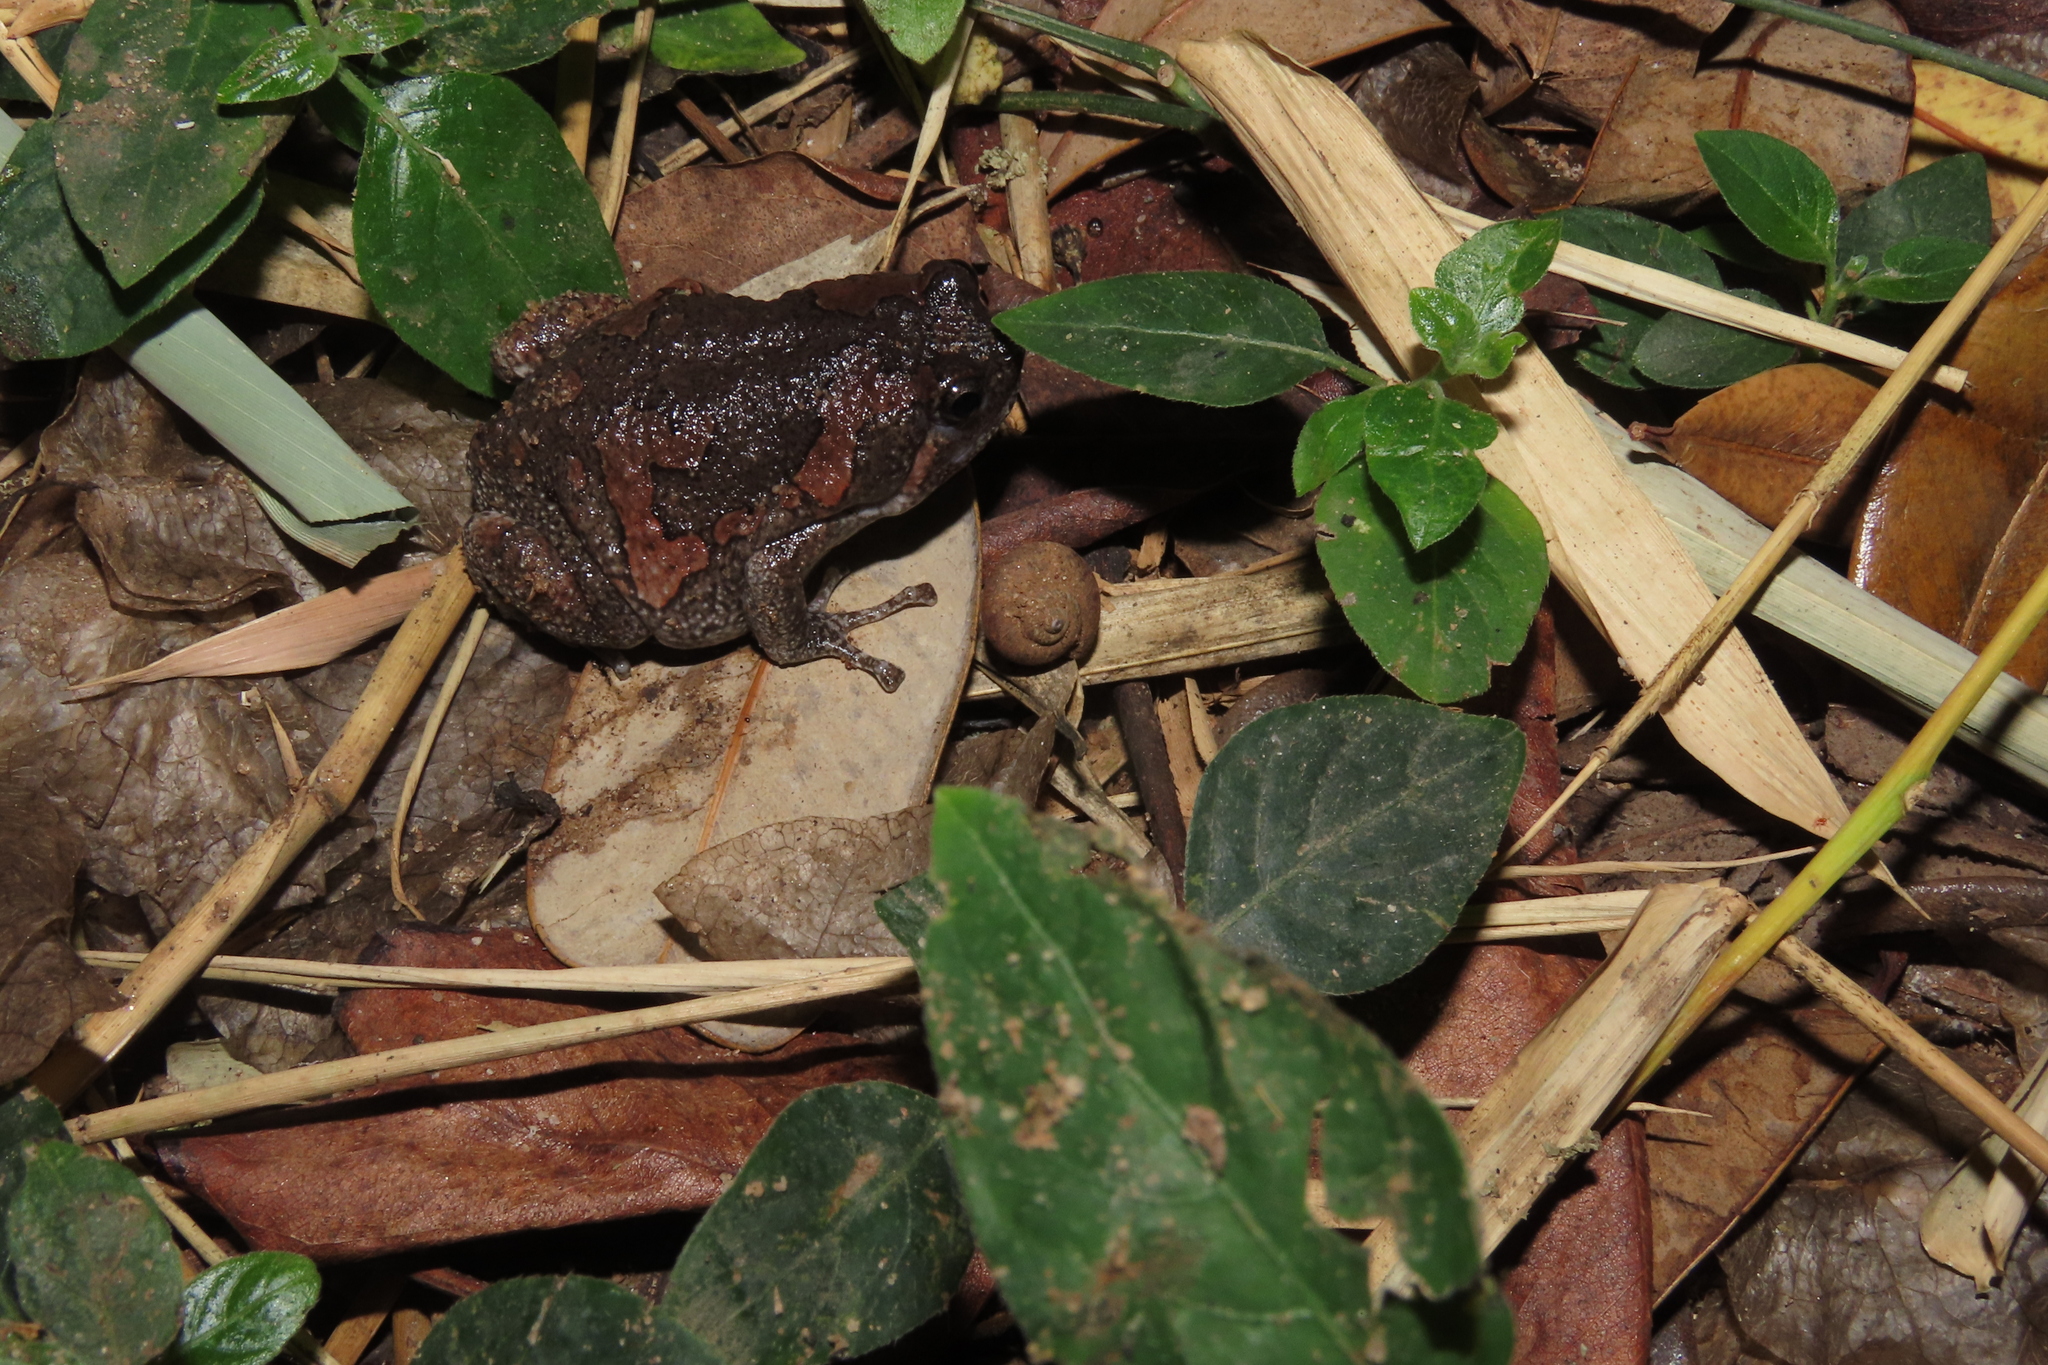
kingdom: Animalia
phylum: Chordata
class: Amphibia
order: Anura
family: Microhylidae
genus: Uperodon
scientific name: Uperodon taprobanicus
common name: Ceylon kaloula
